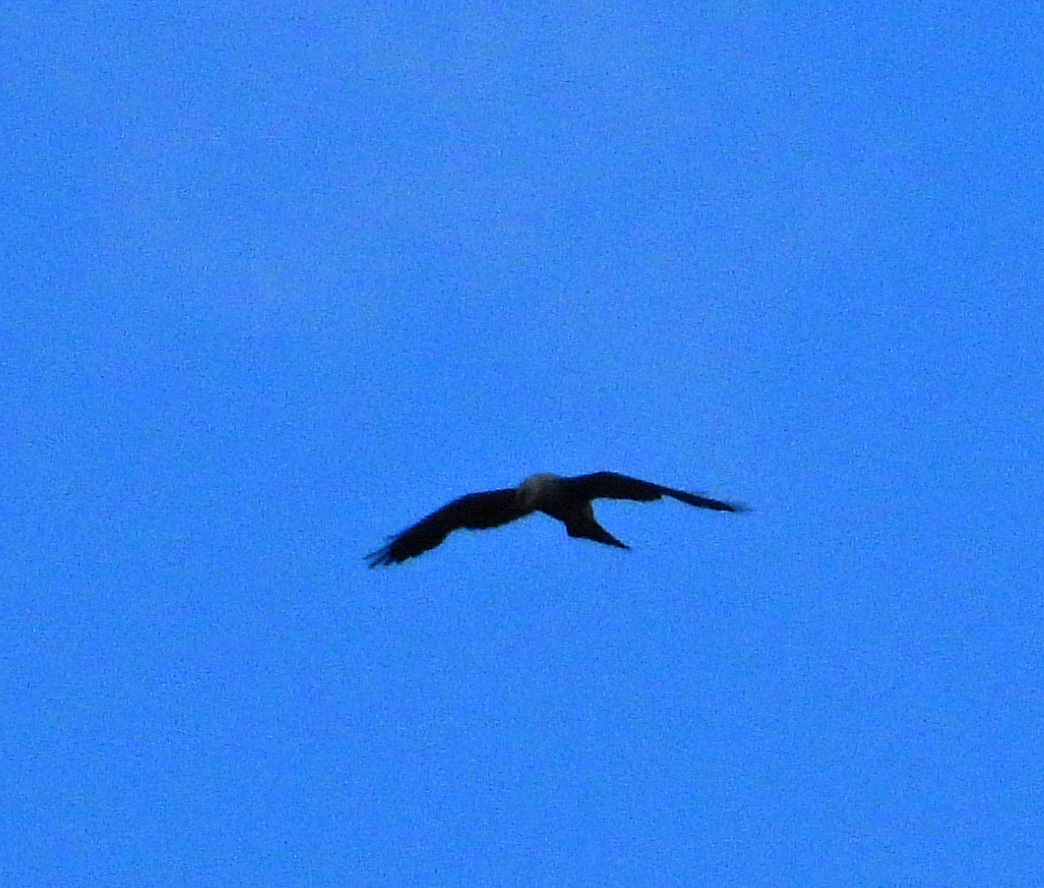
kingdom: Animalia
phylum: Chordata
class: Aves
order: Accipitriformes
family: Accipitridae
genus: Ictinia
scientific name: Ictinia mississippiensis
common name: Mississippi kite
